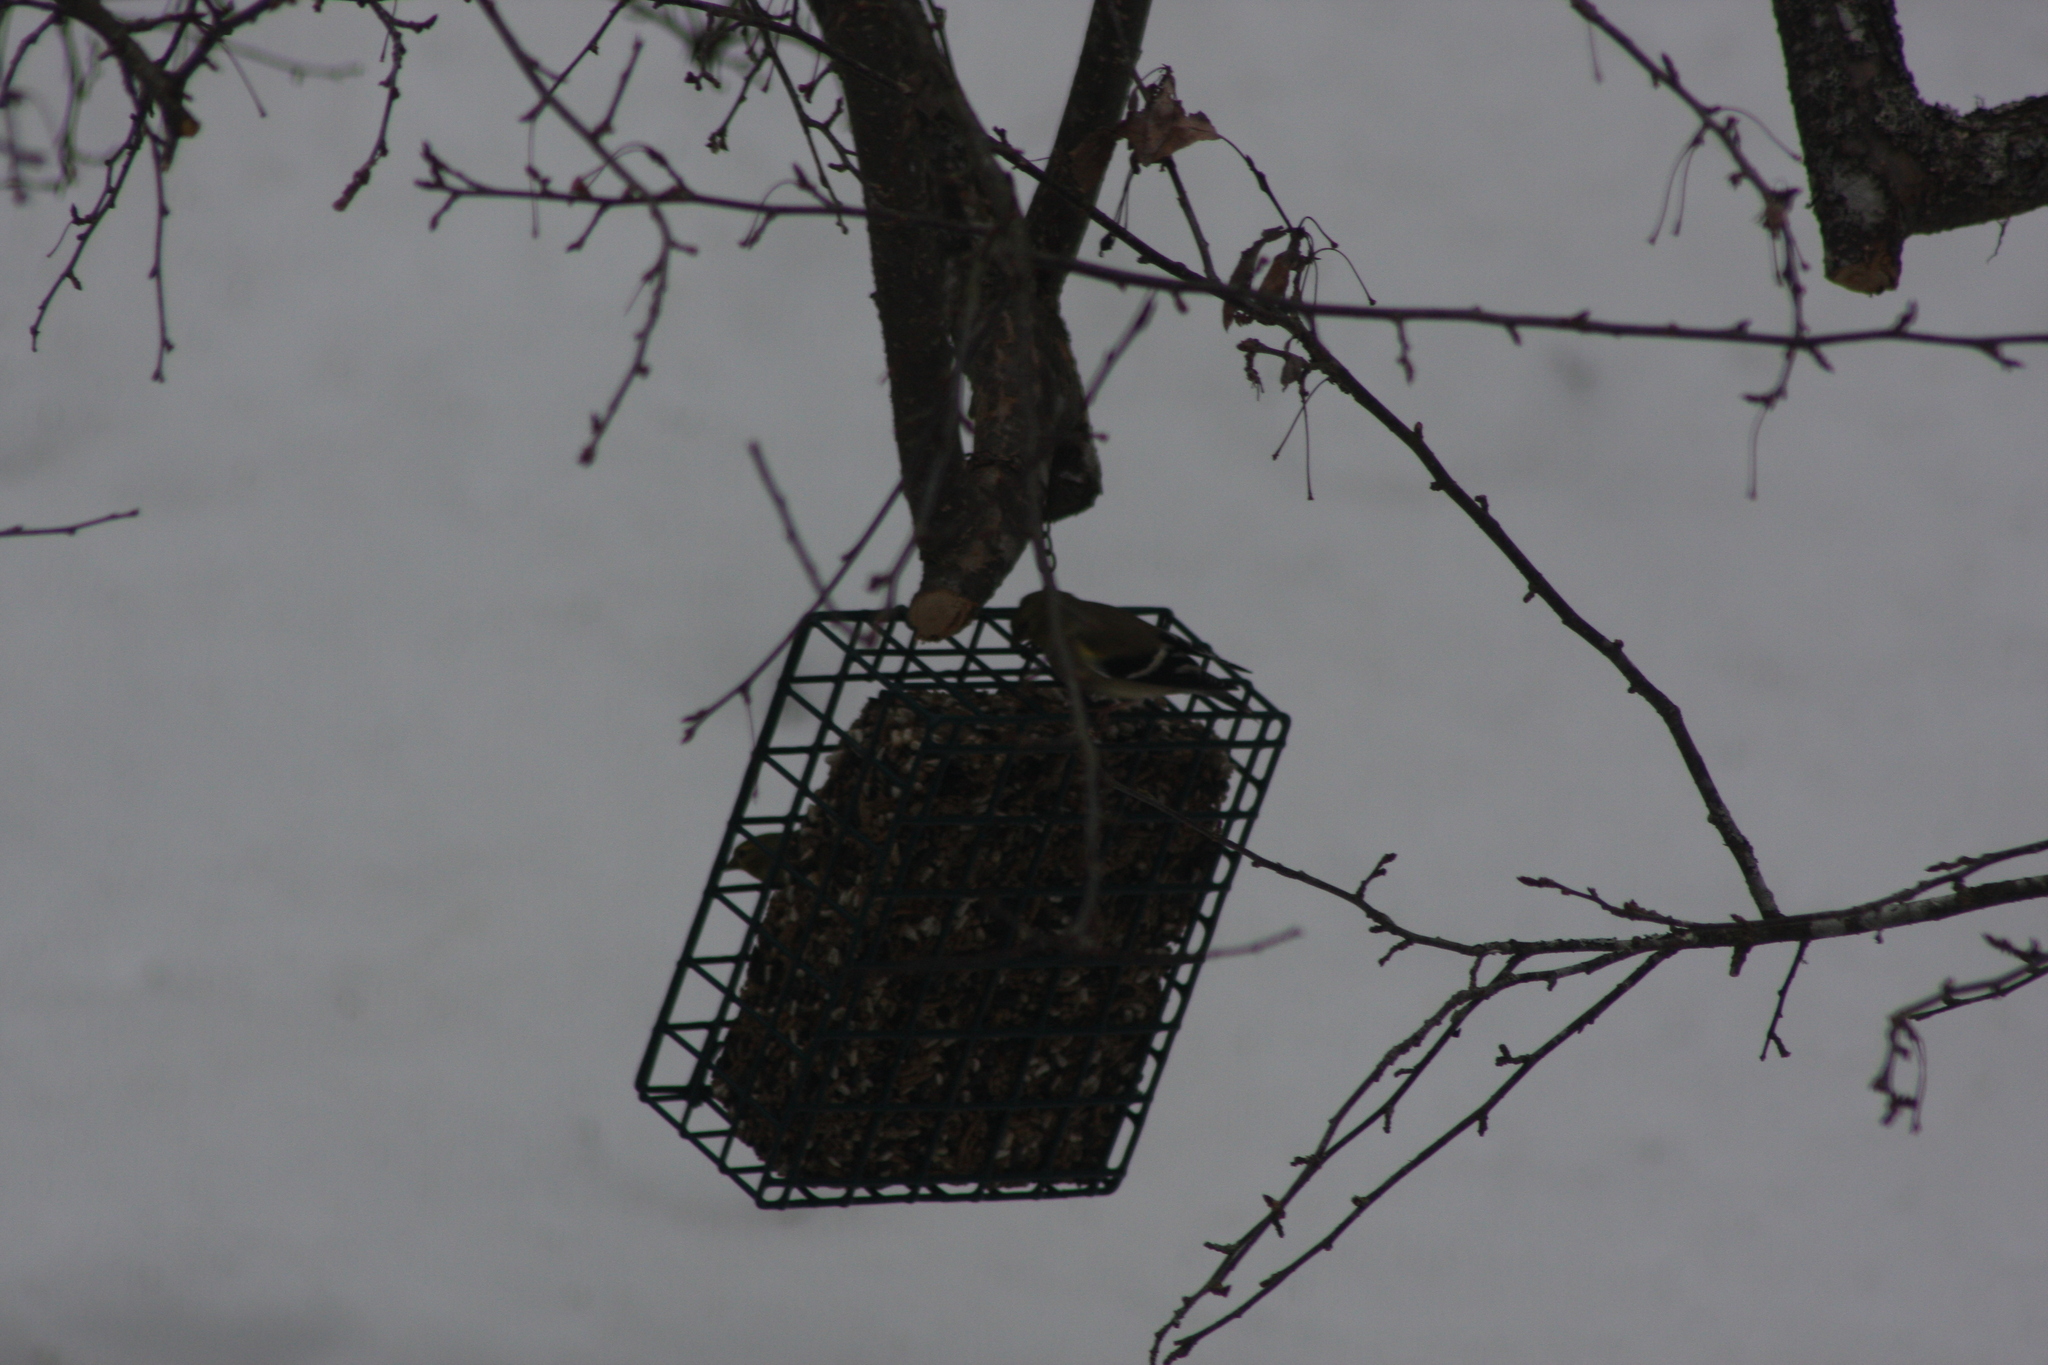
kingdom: Animalia
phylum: Chordata
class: Aves
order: Passeriformes
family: Fringillidae
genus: Spinus
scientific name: Spinus tristis
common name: American goldfinch
